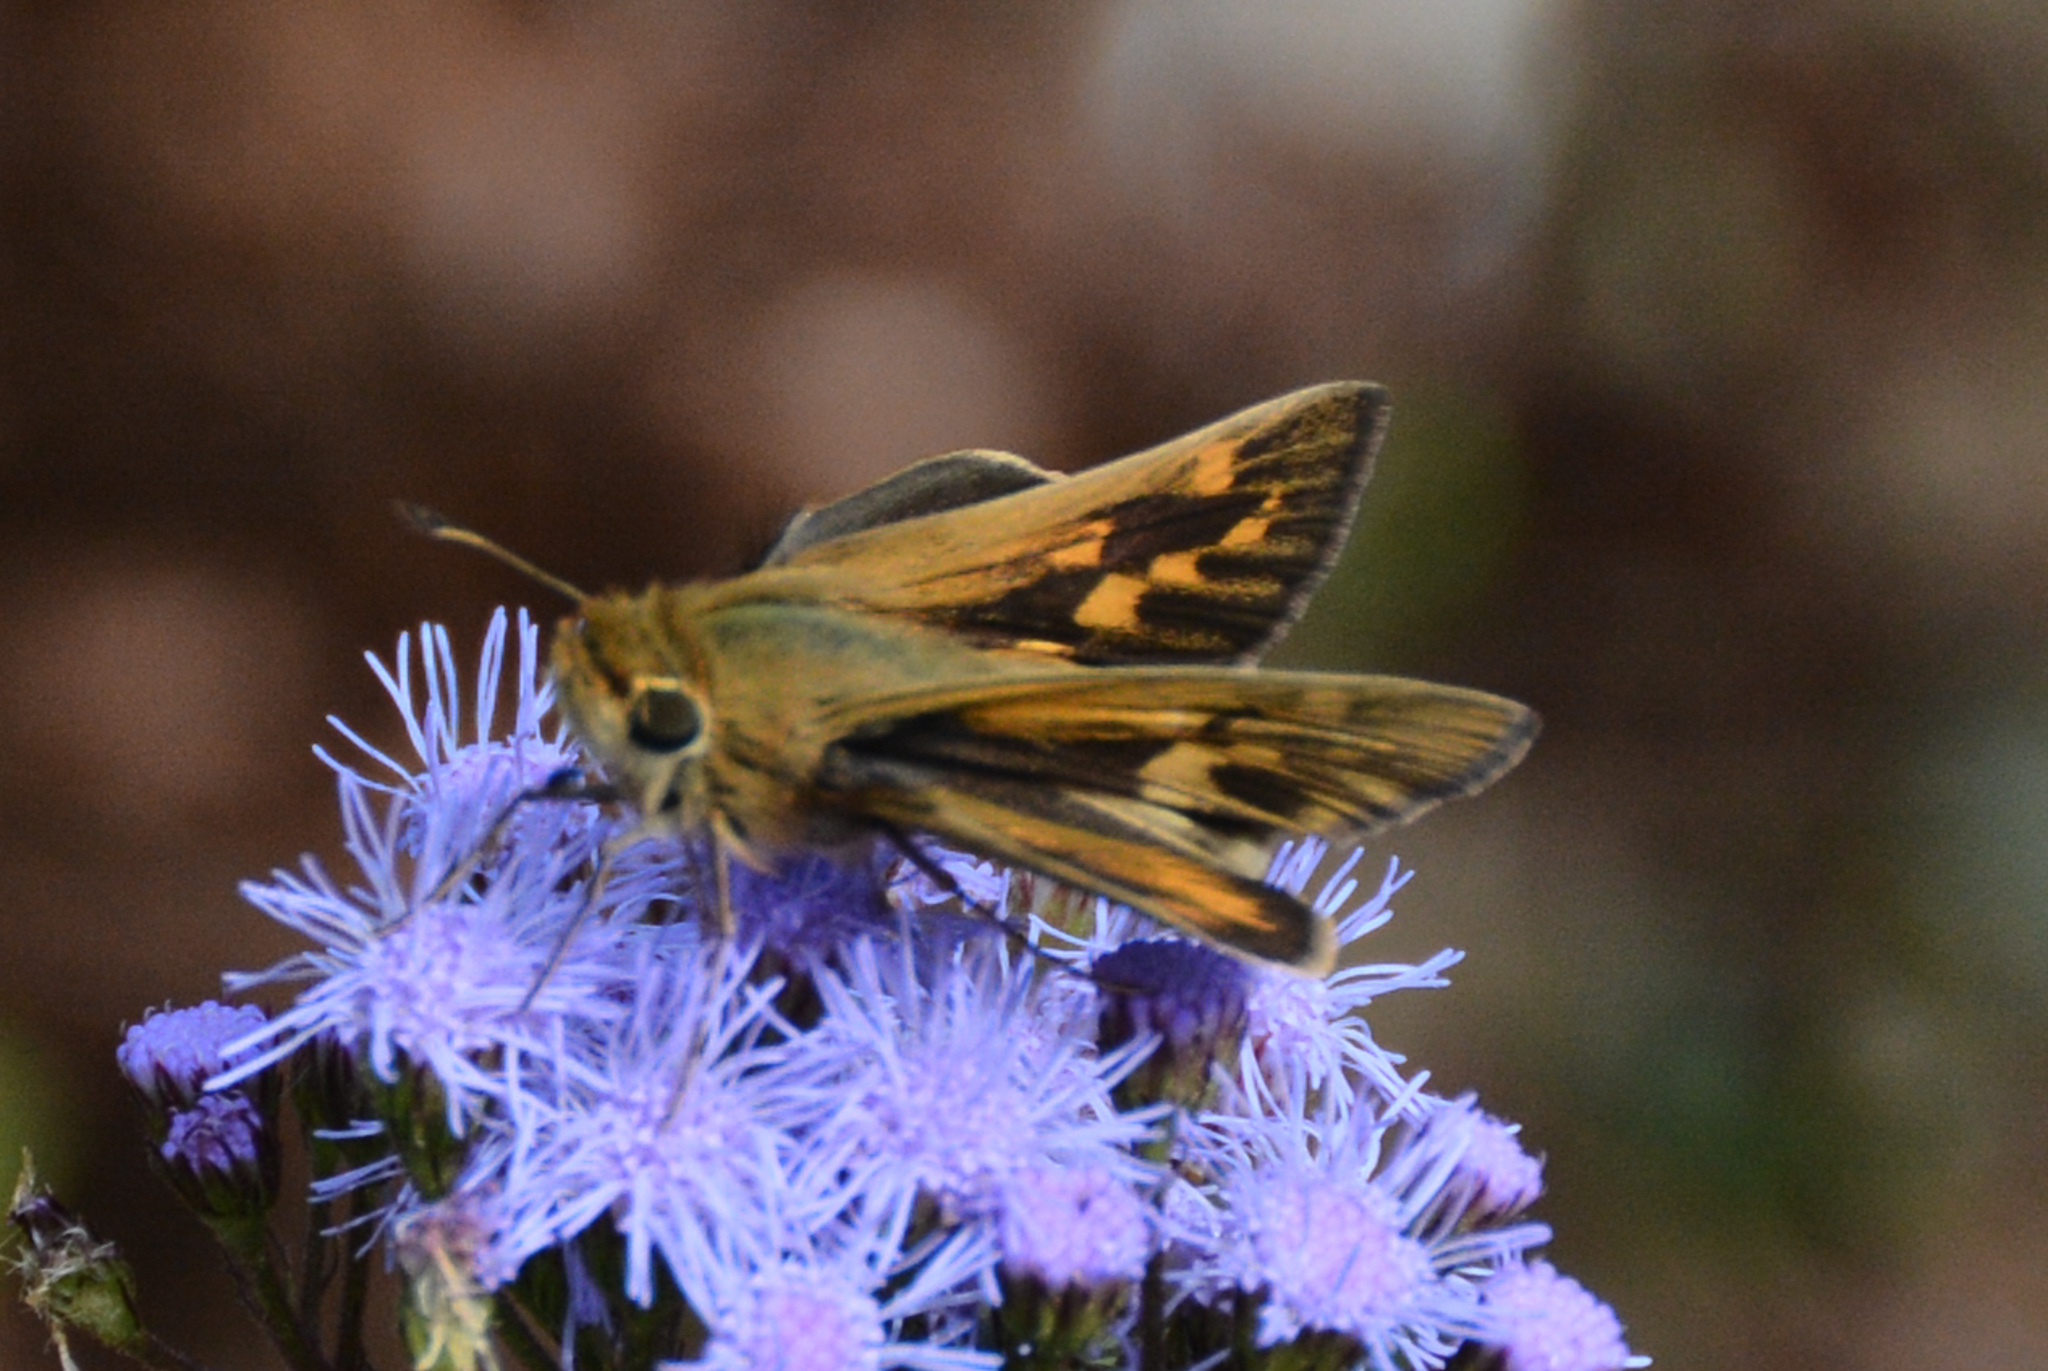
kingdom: Animalia
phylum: Arthropoda
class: Insecta
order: Lepidoptera
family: Hesperiidae
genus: Hylephila
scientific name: Hylephila phyleus
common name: Fiery skipper
